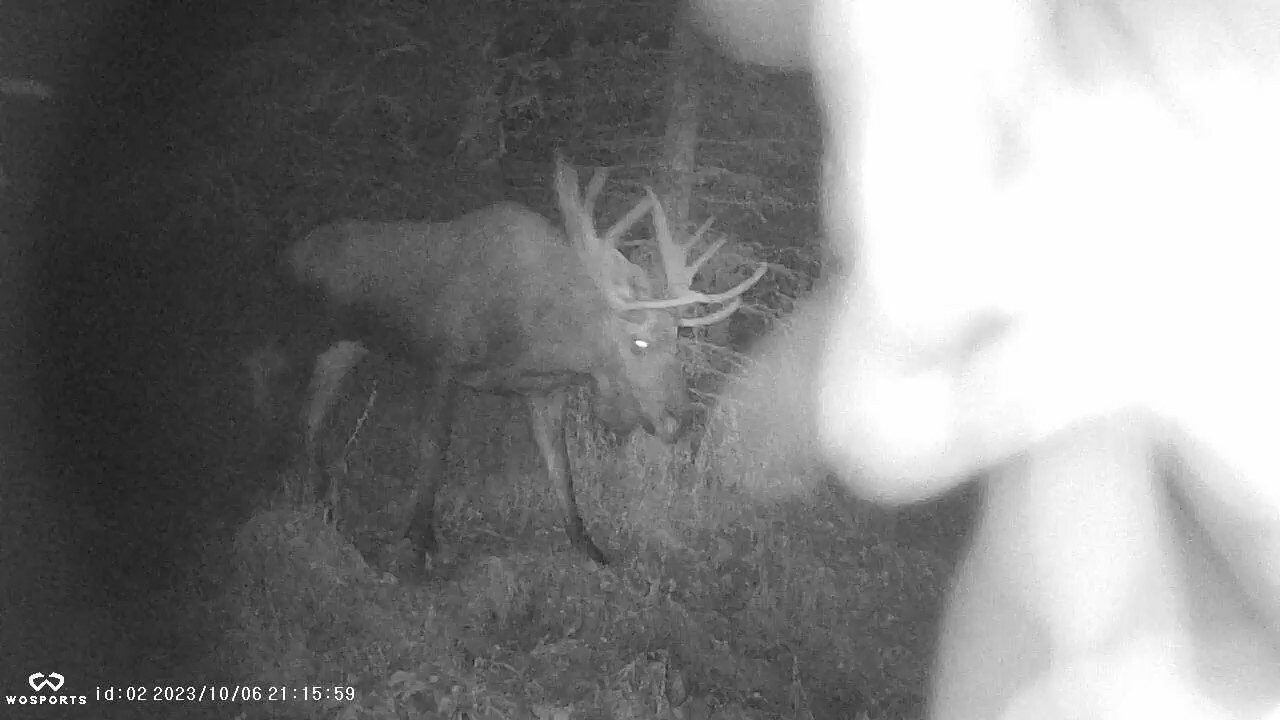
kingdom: Animalia
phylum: Chordata
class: Mammalia
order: Artiodactyla
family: Cervidae
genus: Alces
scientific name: Alces alces
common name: Moose
